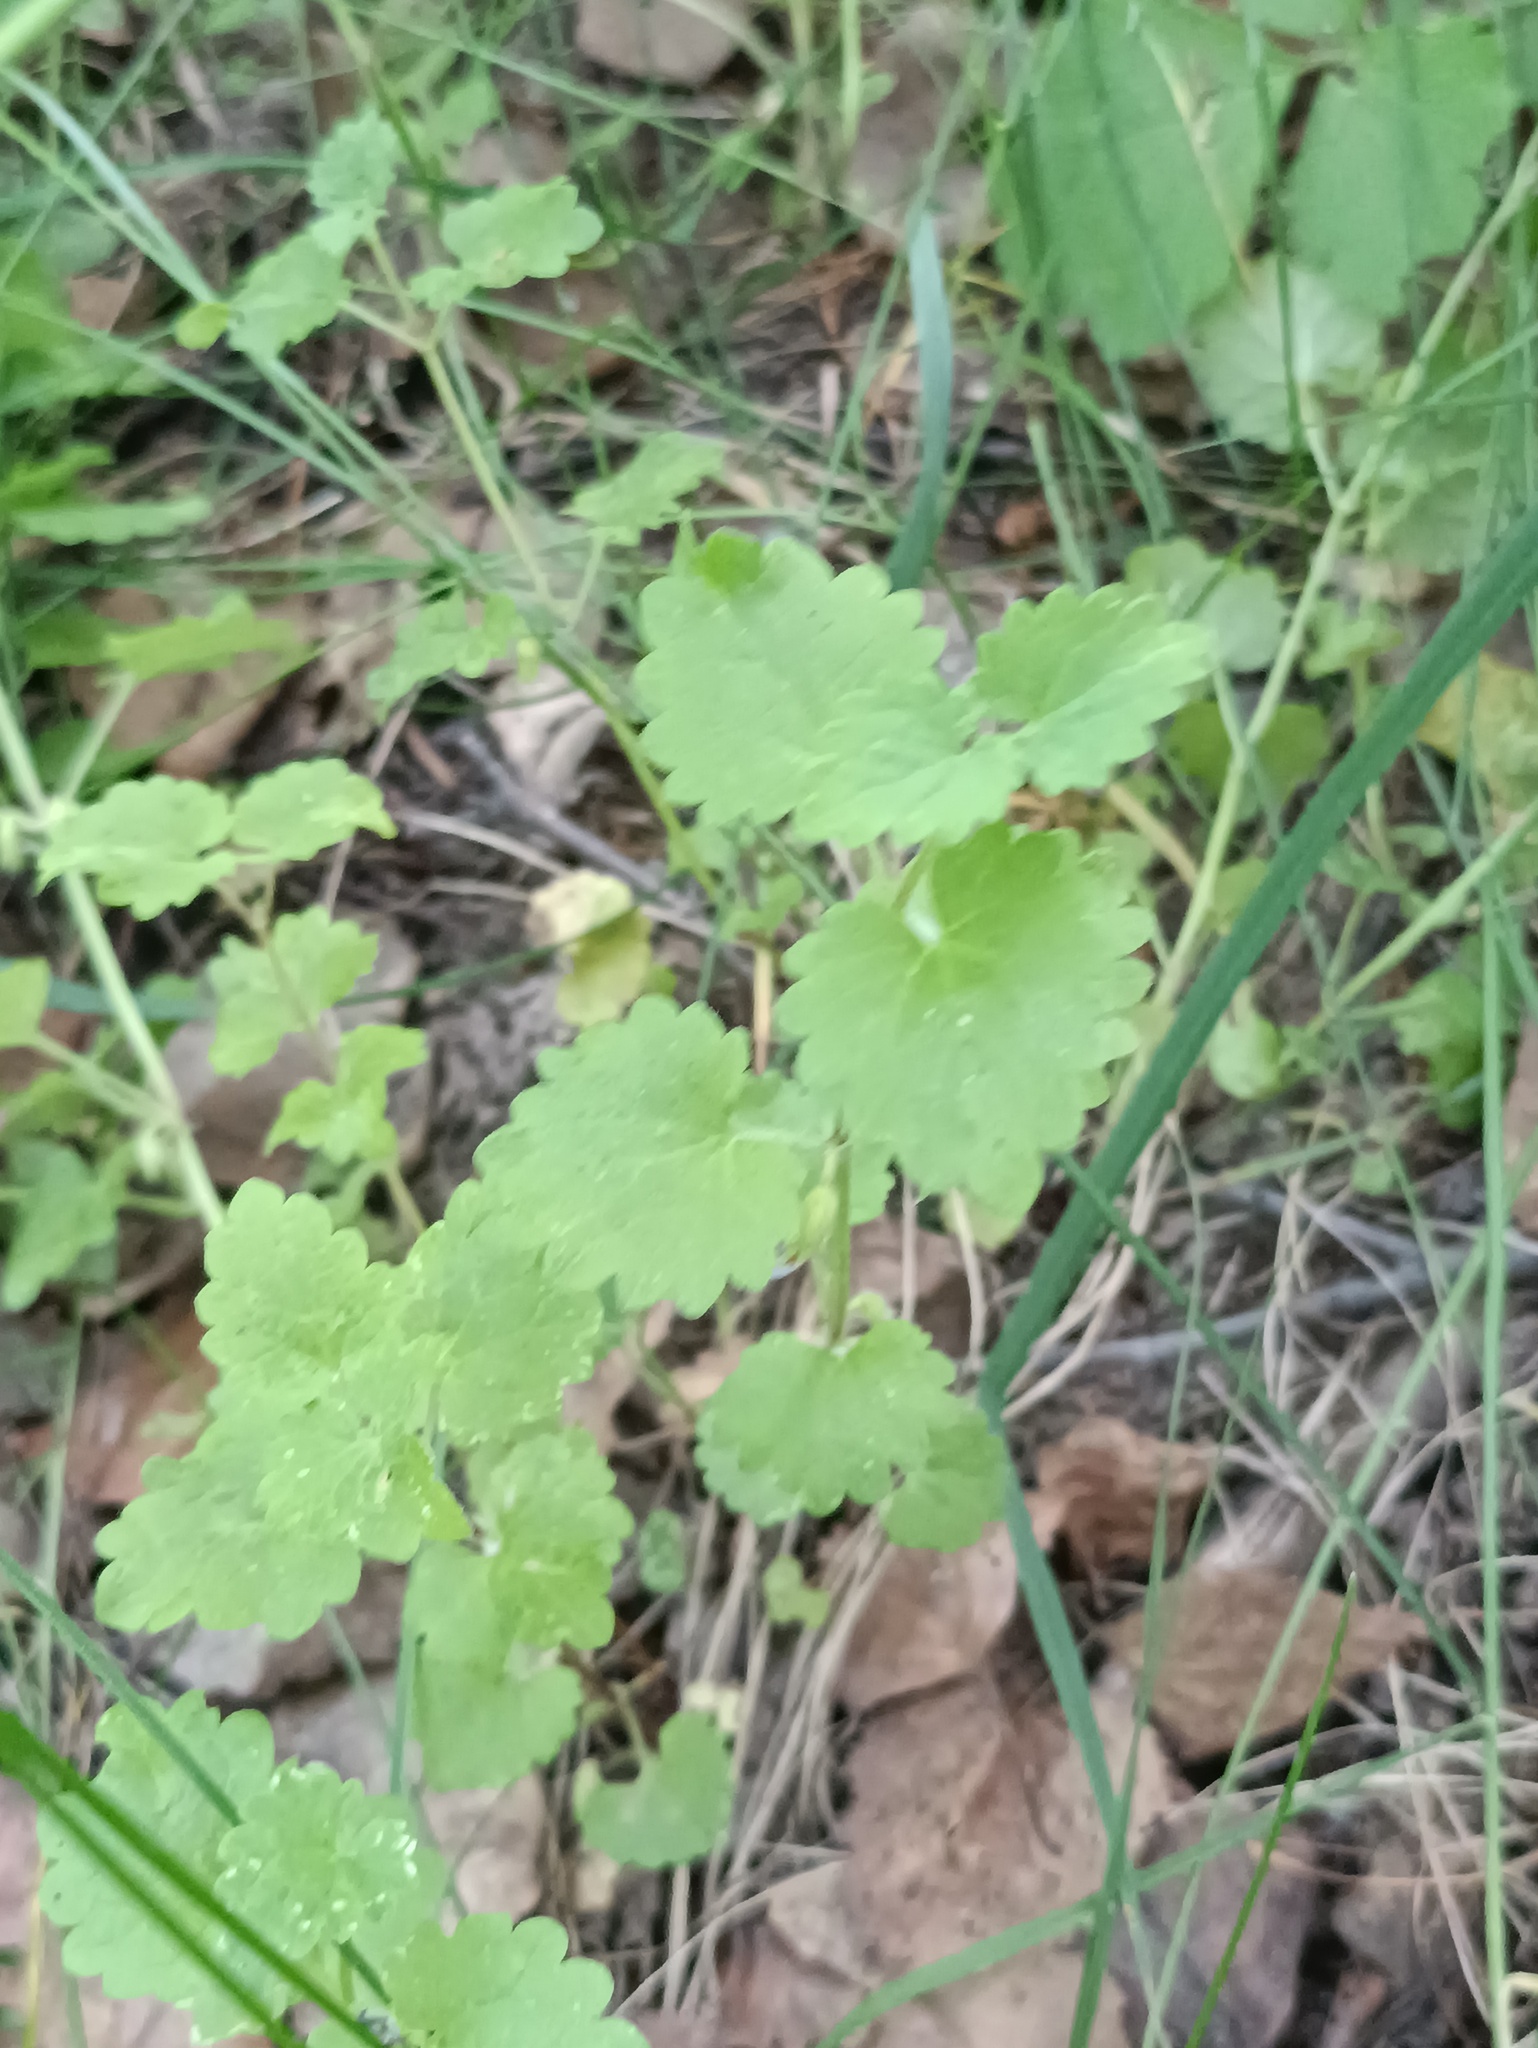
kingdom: Plantae
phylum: Tracheophyta
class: Magnoliopsida
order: Lamiales
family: Lamiaceae
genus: Glechoma
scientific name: Glechoma hederacea
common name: Ground ivy
